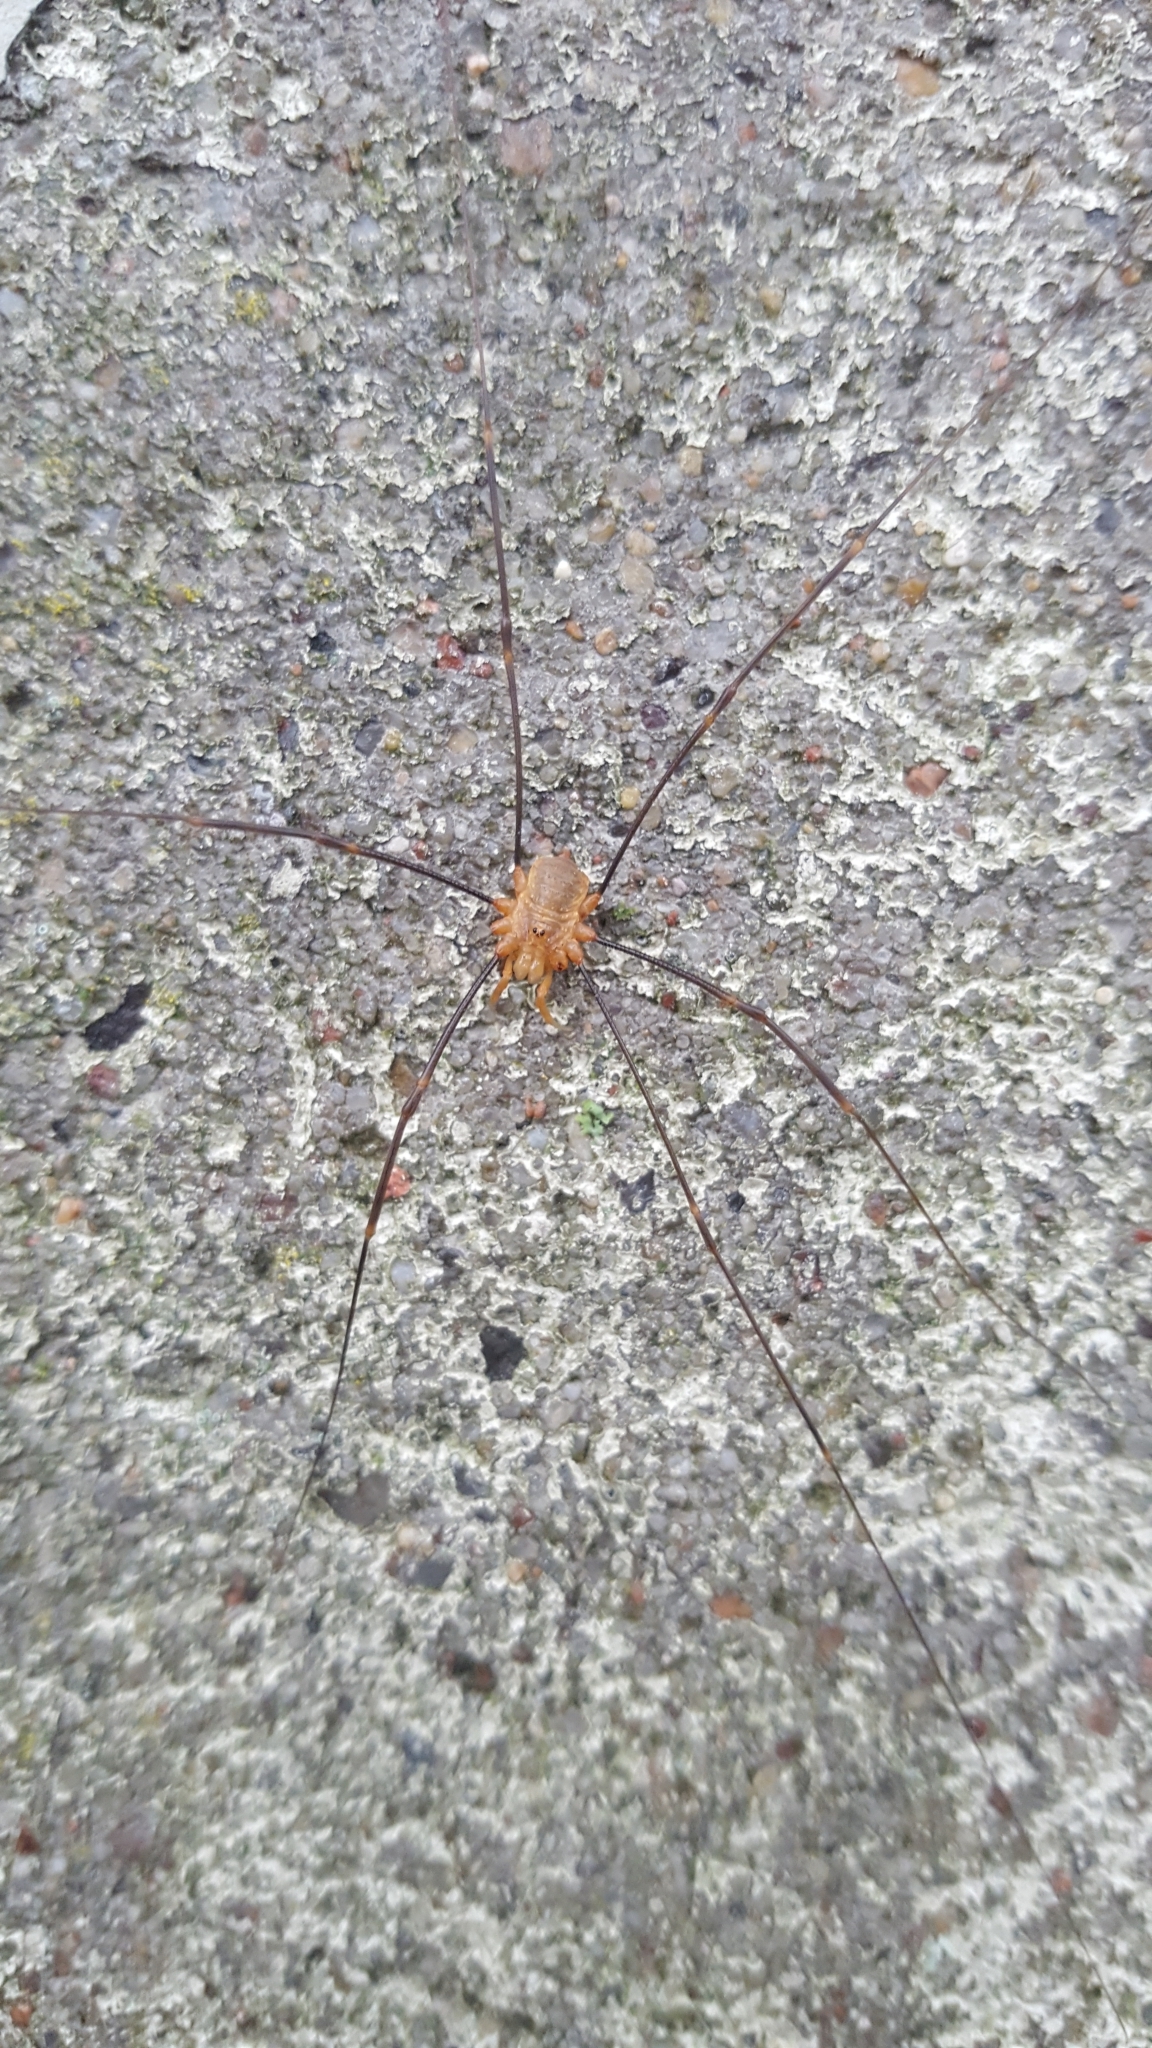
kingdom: Animalia
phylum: Arthropoda
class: Arachnida
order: Opiliones
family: Phalangiidae
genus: Opilio
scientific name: Opilio canestrinii
